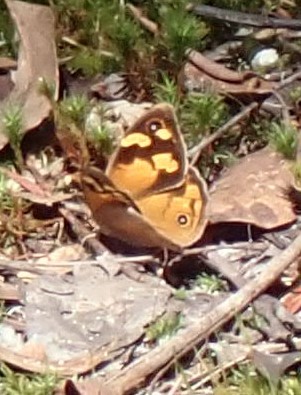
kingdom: Animalia
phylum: Arthropoda
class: Insecta
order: Lepidoptera
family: Nymphalidae
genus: Heteronympha
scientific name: Heteronympha merope
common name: Common brown
